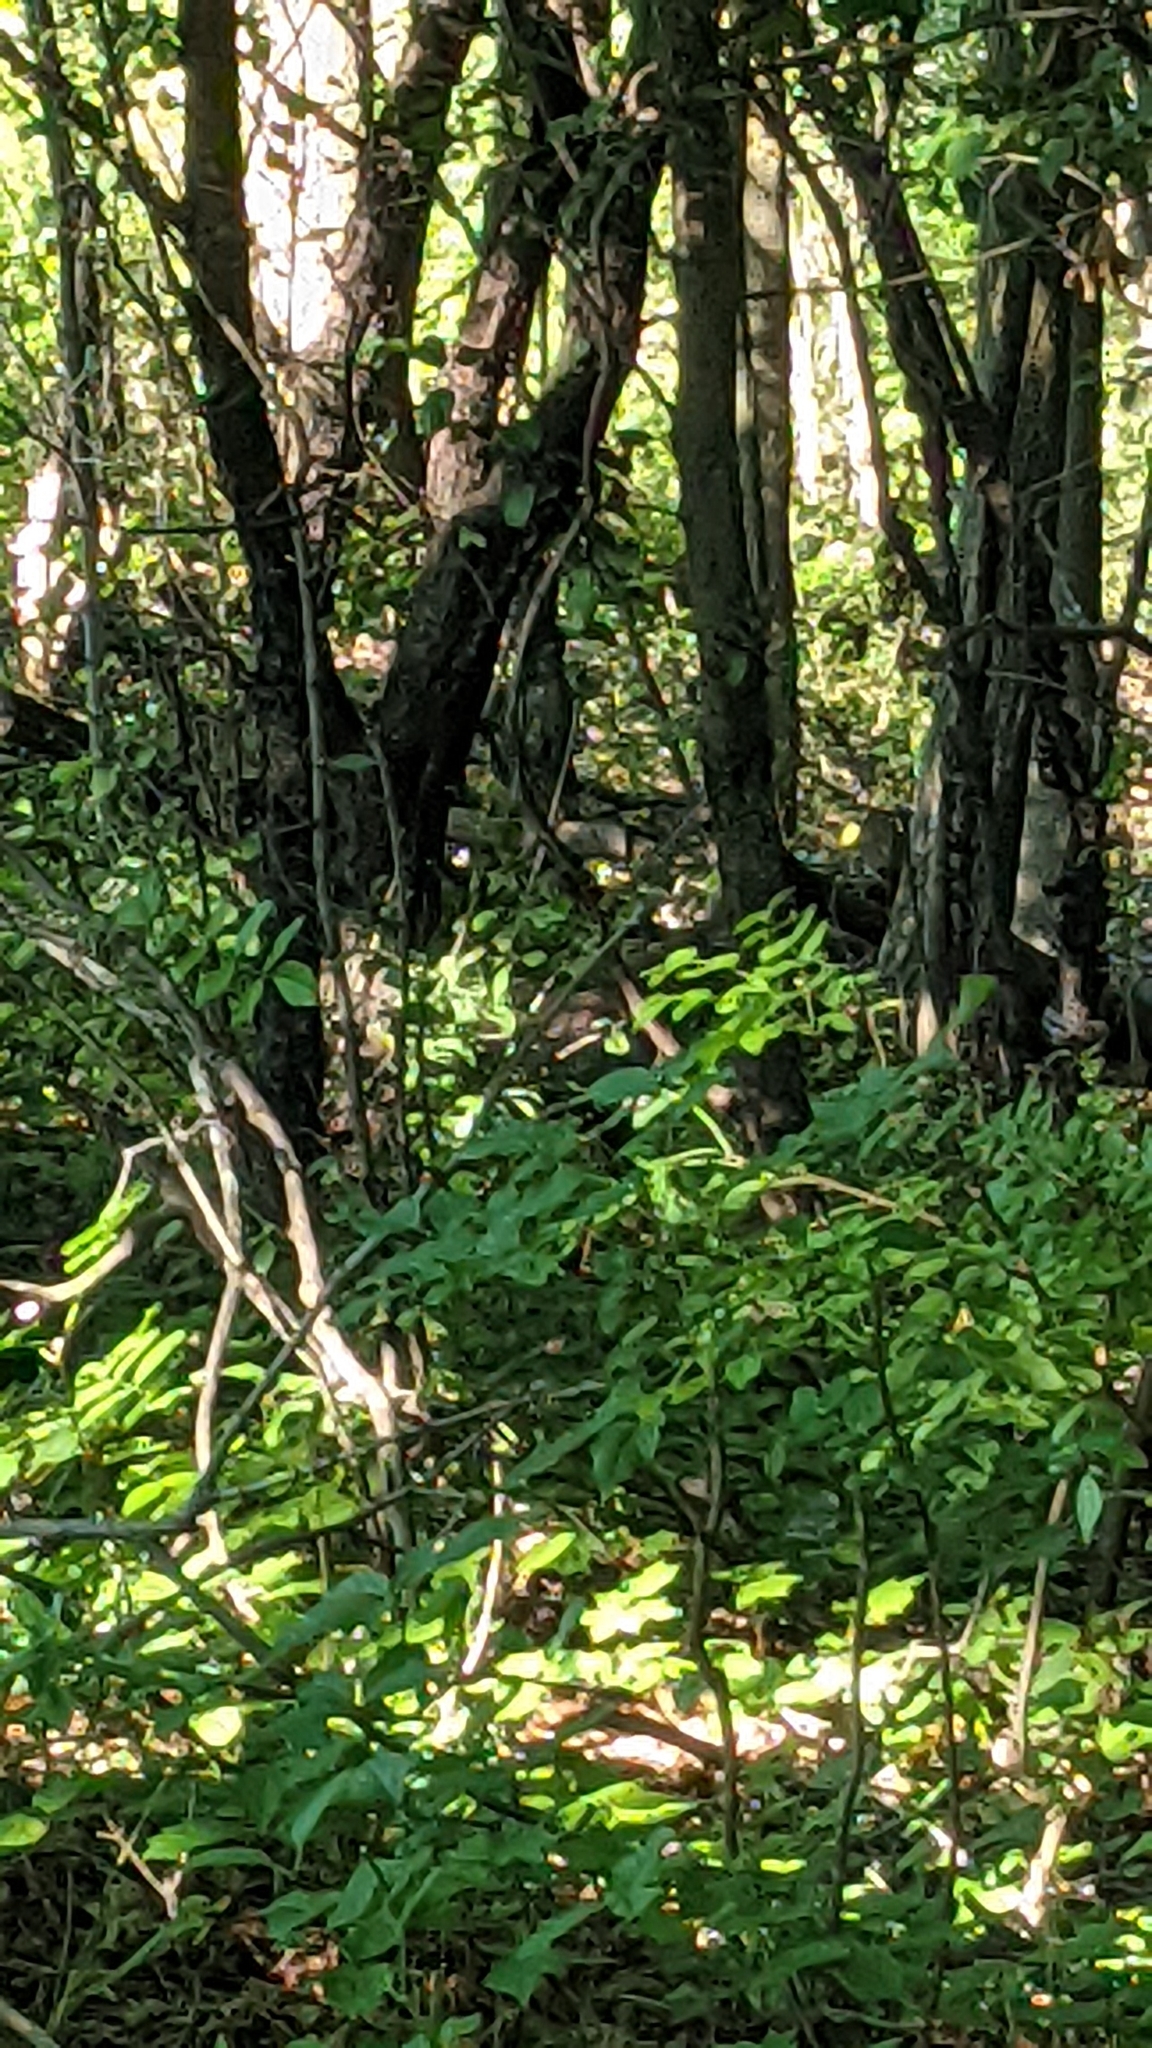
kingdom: Animalia
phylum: Chordata
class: Aves
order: Galliformes
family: Phasianidae
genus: Meleagris
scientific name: Meleagris gallopavo
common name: Wild turkey
